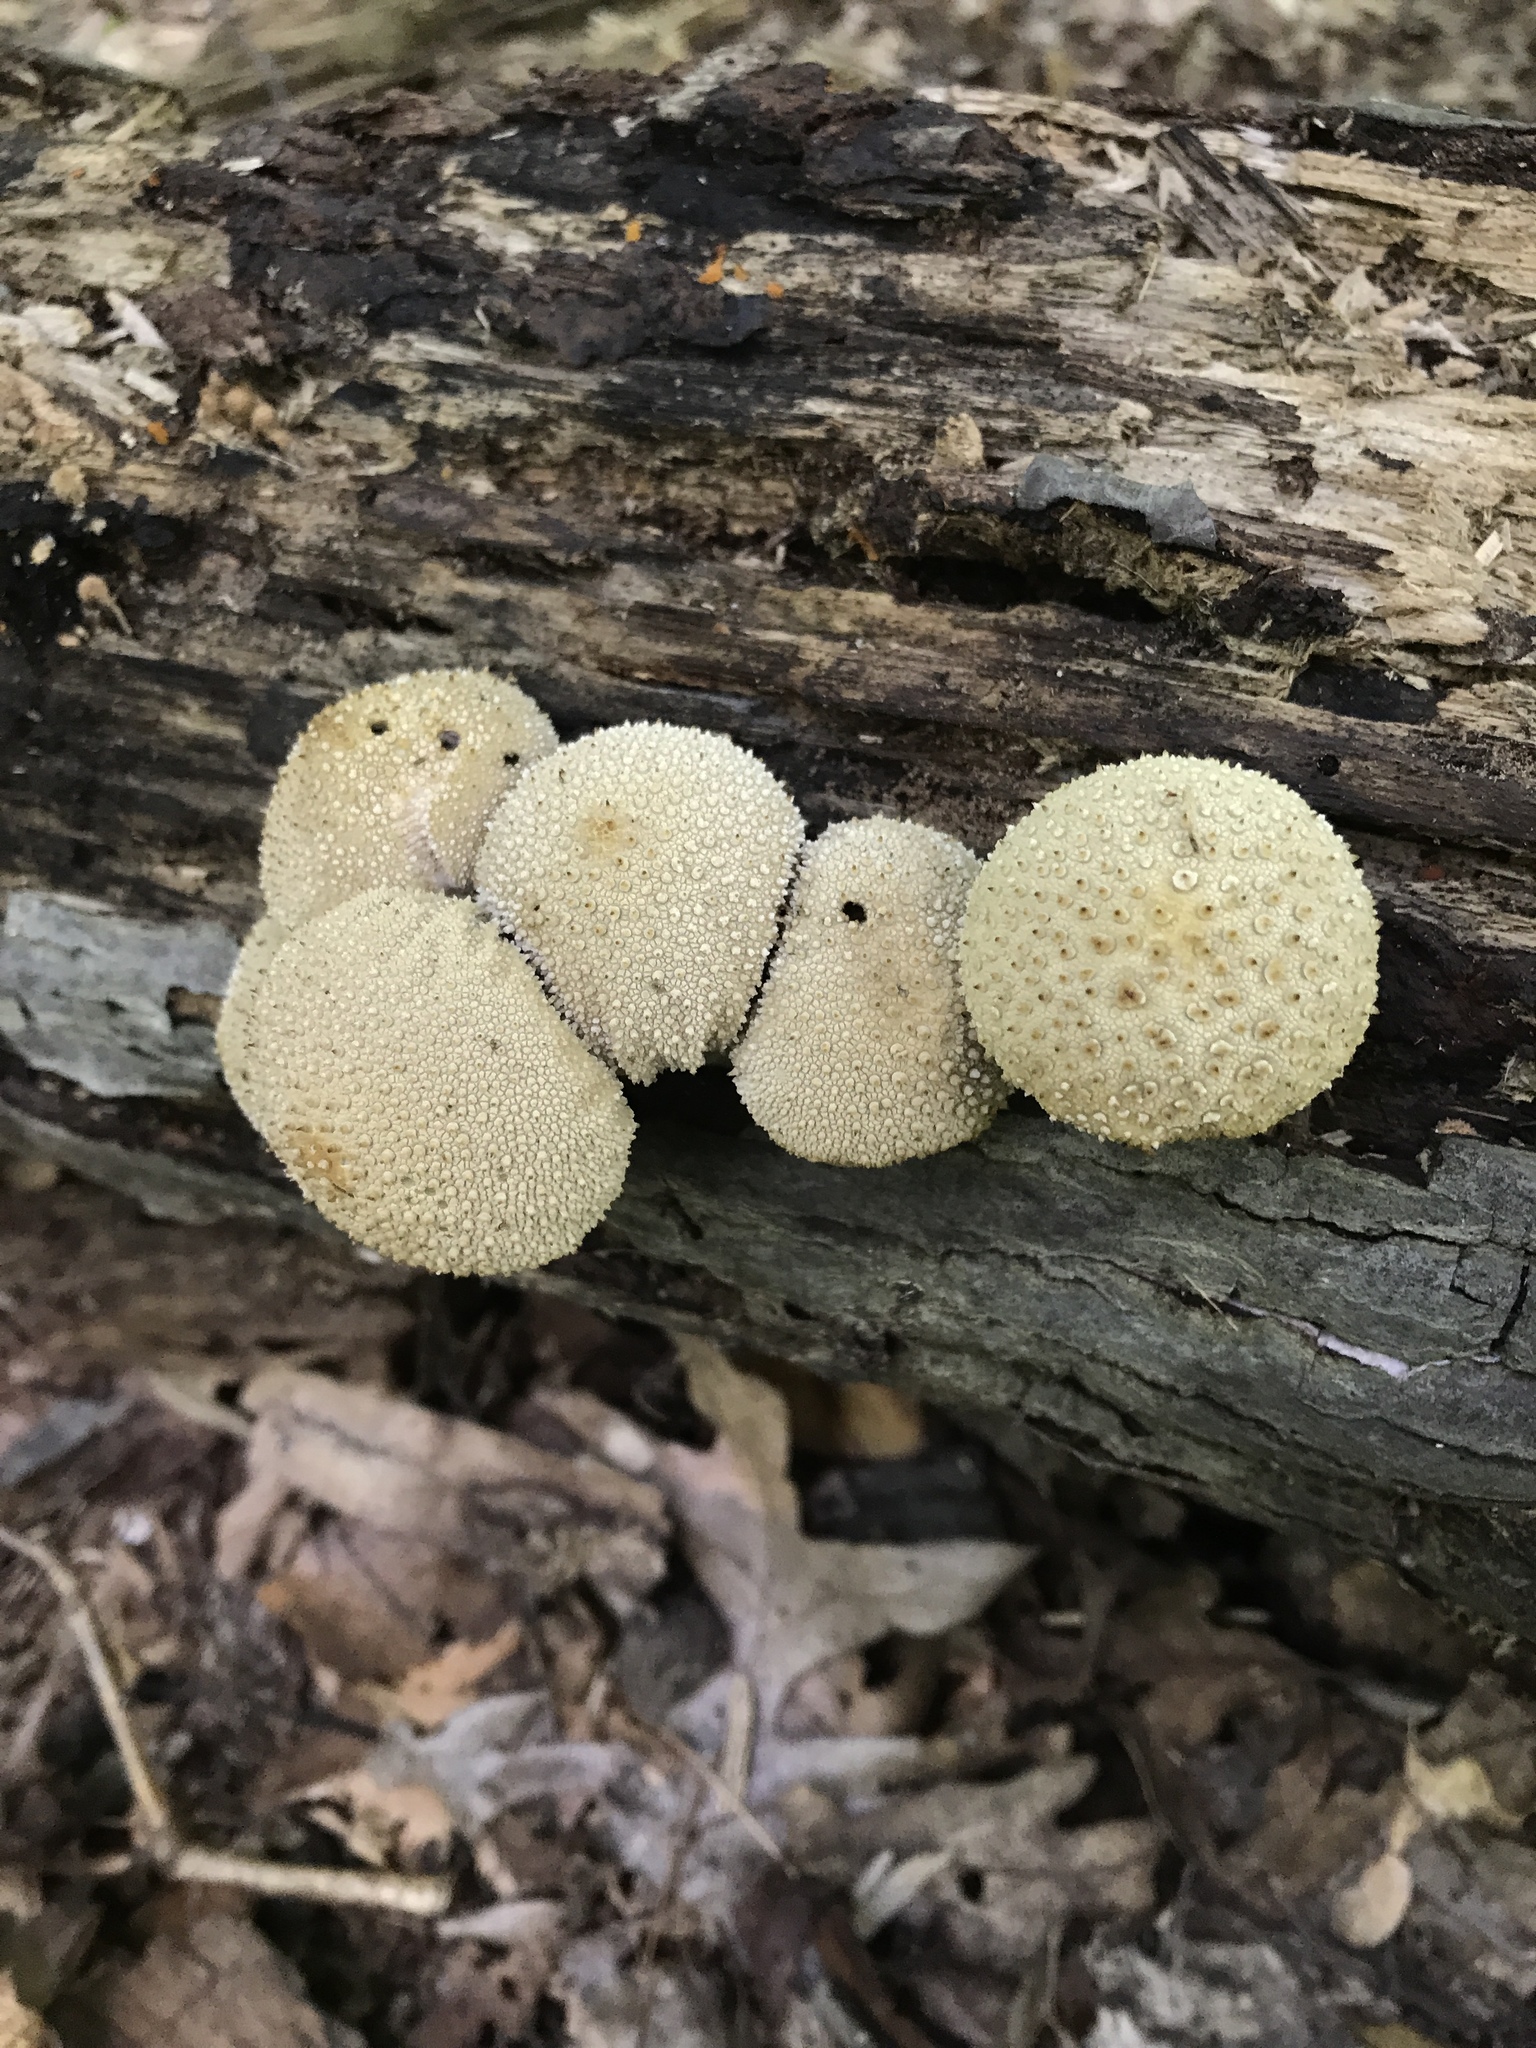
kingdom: Fungi
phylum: Basidiomycota
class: Agaricomycetes
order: Agaricales
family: Lycoperdaceae
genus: Lycoperdon
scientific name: Lycoperdon perlatum
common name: Common puffball
